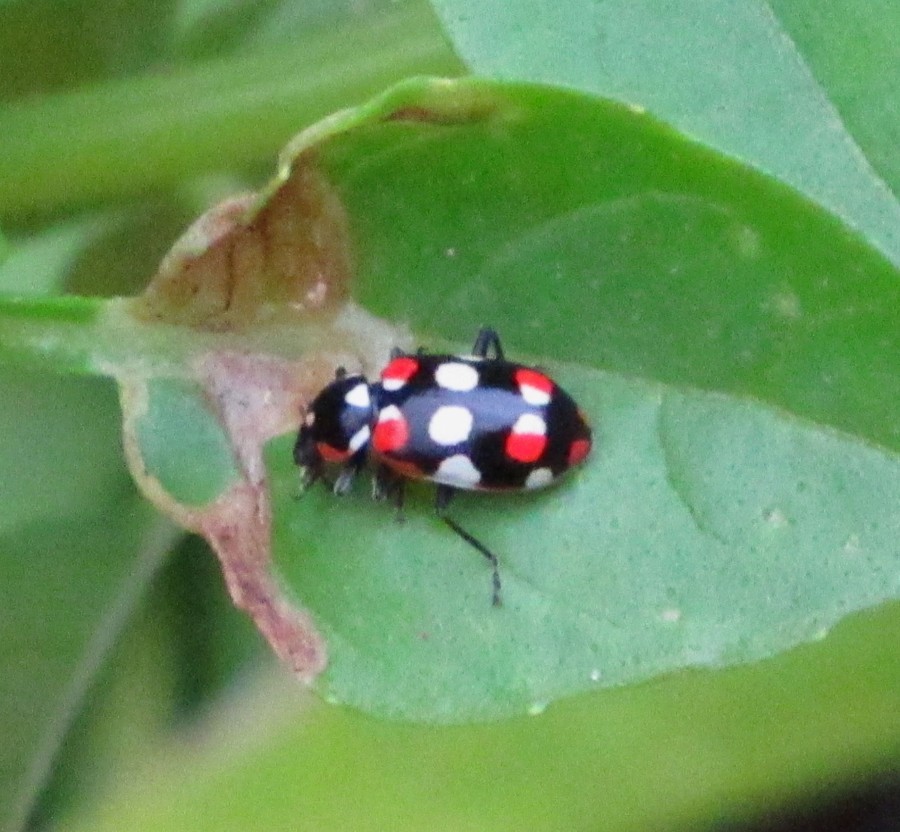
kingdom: Animalia
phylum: Arthropoda
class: Insecta
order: Coleoptera
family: Coccinellidae
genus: Eriopis
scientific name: Eriopis connexa
